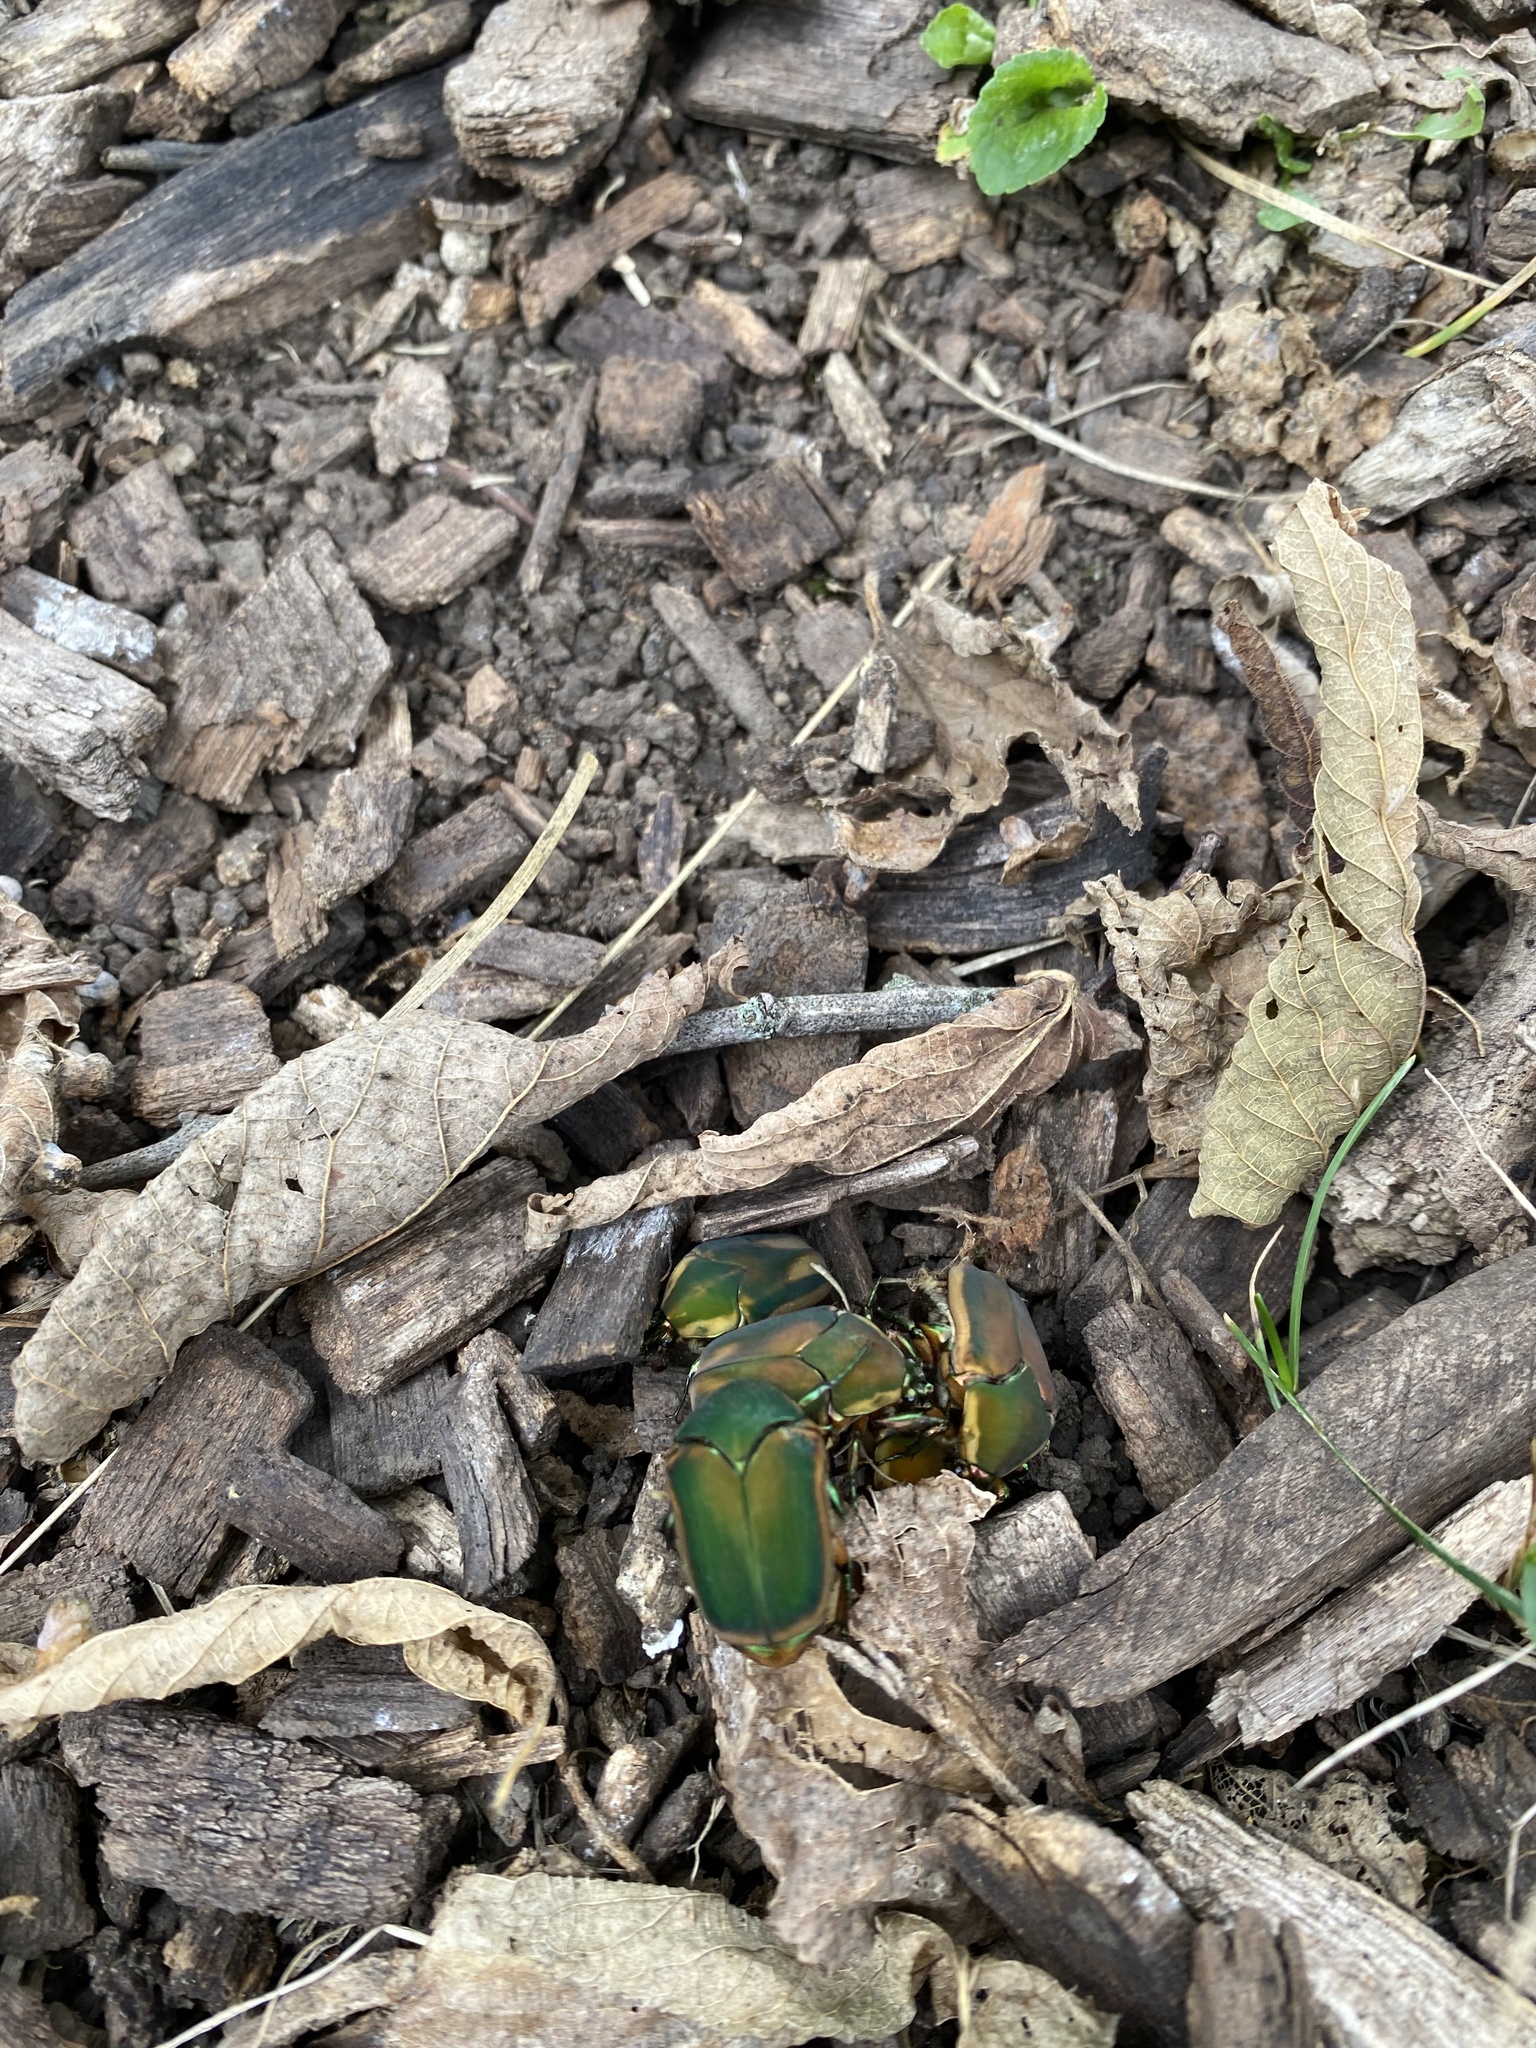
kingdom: Animalia
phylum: Arthropoda
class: Insecta
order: Coleoptera
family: Scarabaeidae
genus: Cotinis
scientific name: Cotinis nitida
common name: Common green june beetle
